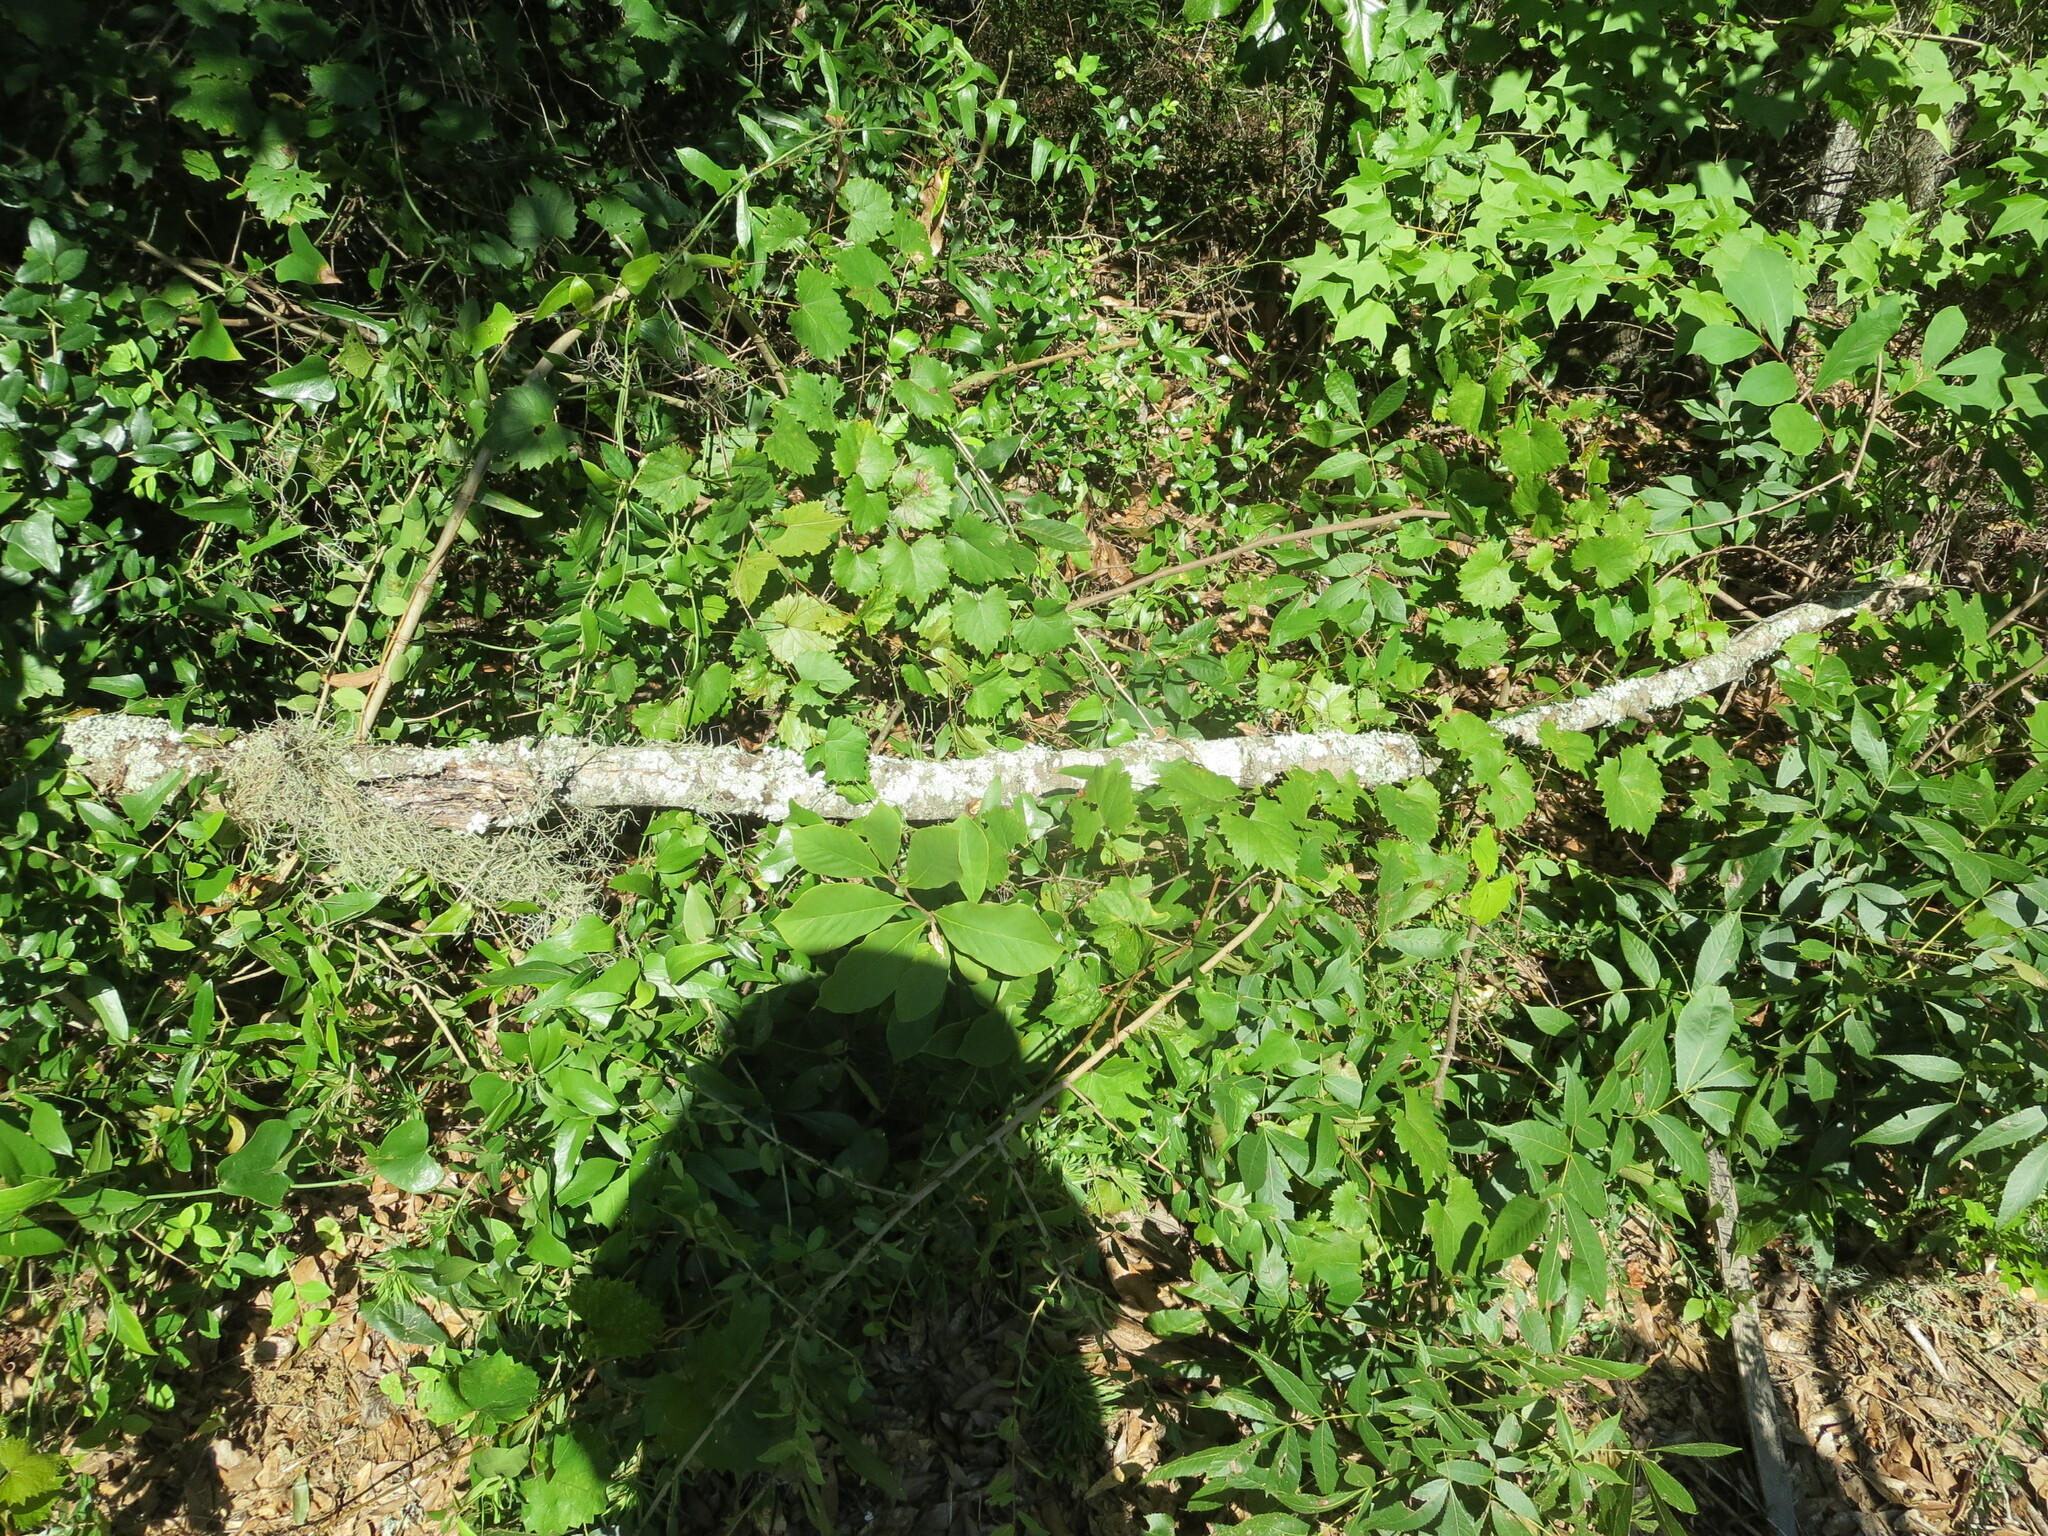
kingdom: Plantae
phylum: Tracheophyta
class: Magnoliopsida
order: Magnoliales
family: Annonaceae
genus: Asimina
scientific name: Asimina parviflora
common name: Dwarf pawpaw
